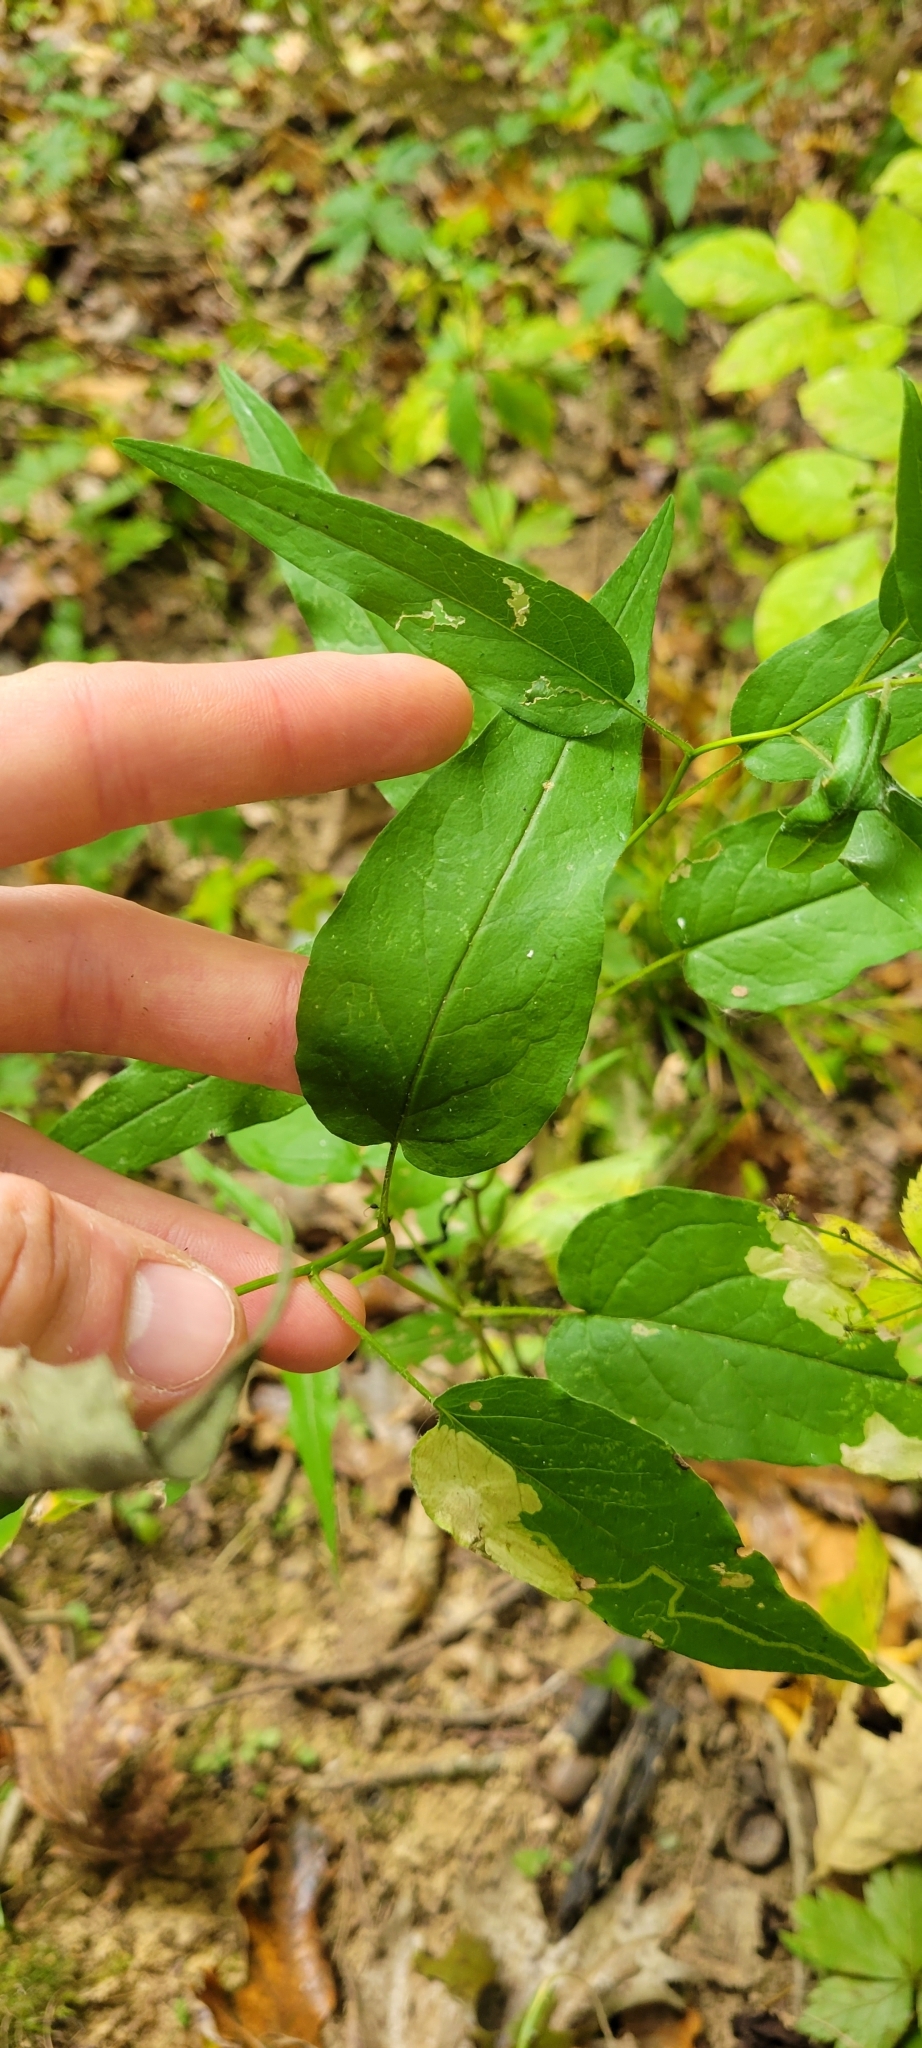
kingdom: Plantae
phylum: Tracheophyta
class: Magnoliopsida
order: Asterales
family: Asteraceae
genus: Symphyotrichum
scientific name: Symphyotrichum shortii
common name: Short's aster
